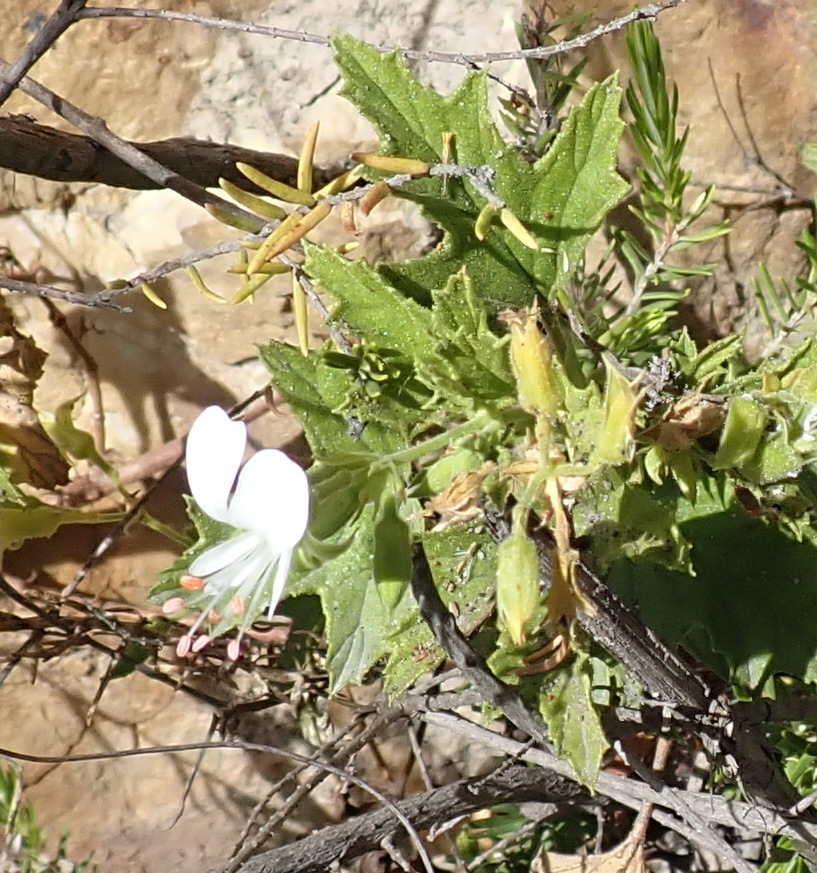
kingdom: Plantae
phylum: Tracheophyta
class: Magnoliopsida
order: Geraniales
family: Geraniaceae
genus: Pelargonium
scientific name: Pelargonium ribifolium
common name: Currant-leaf pelargonium
